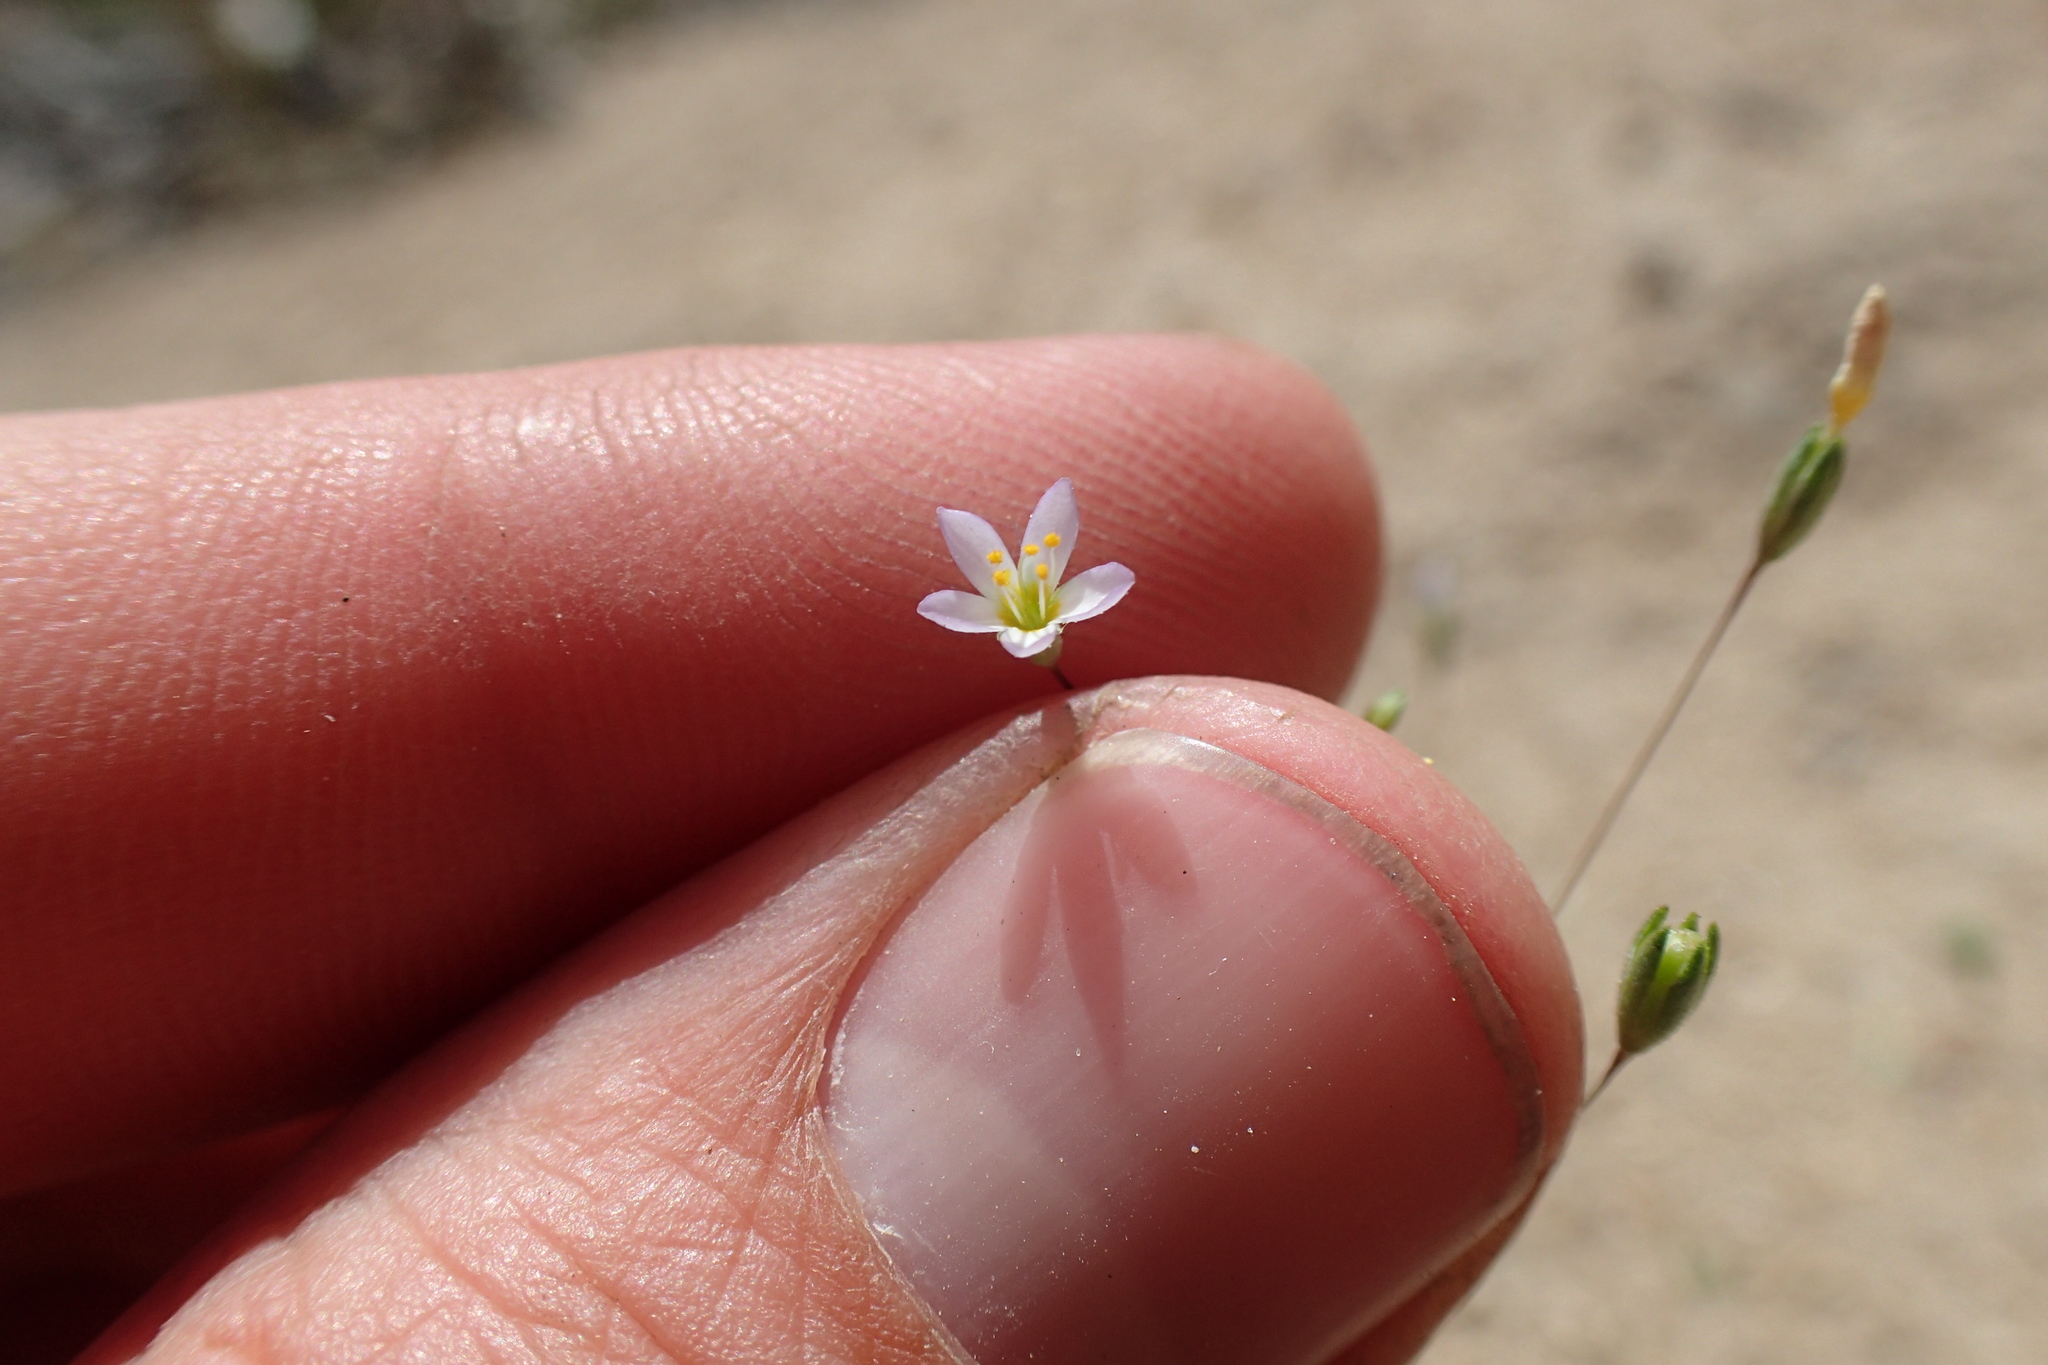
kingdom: Plantae
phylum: Tracheophyta
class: Magnoliopsida
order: Ericales
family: Polemoniaceae
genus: Leptosiphon
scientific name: Leptosiphon septentrionalis
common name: Northern linanthus
